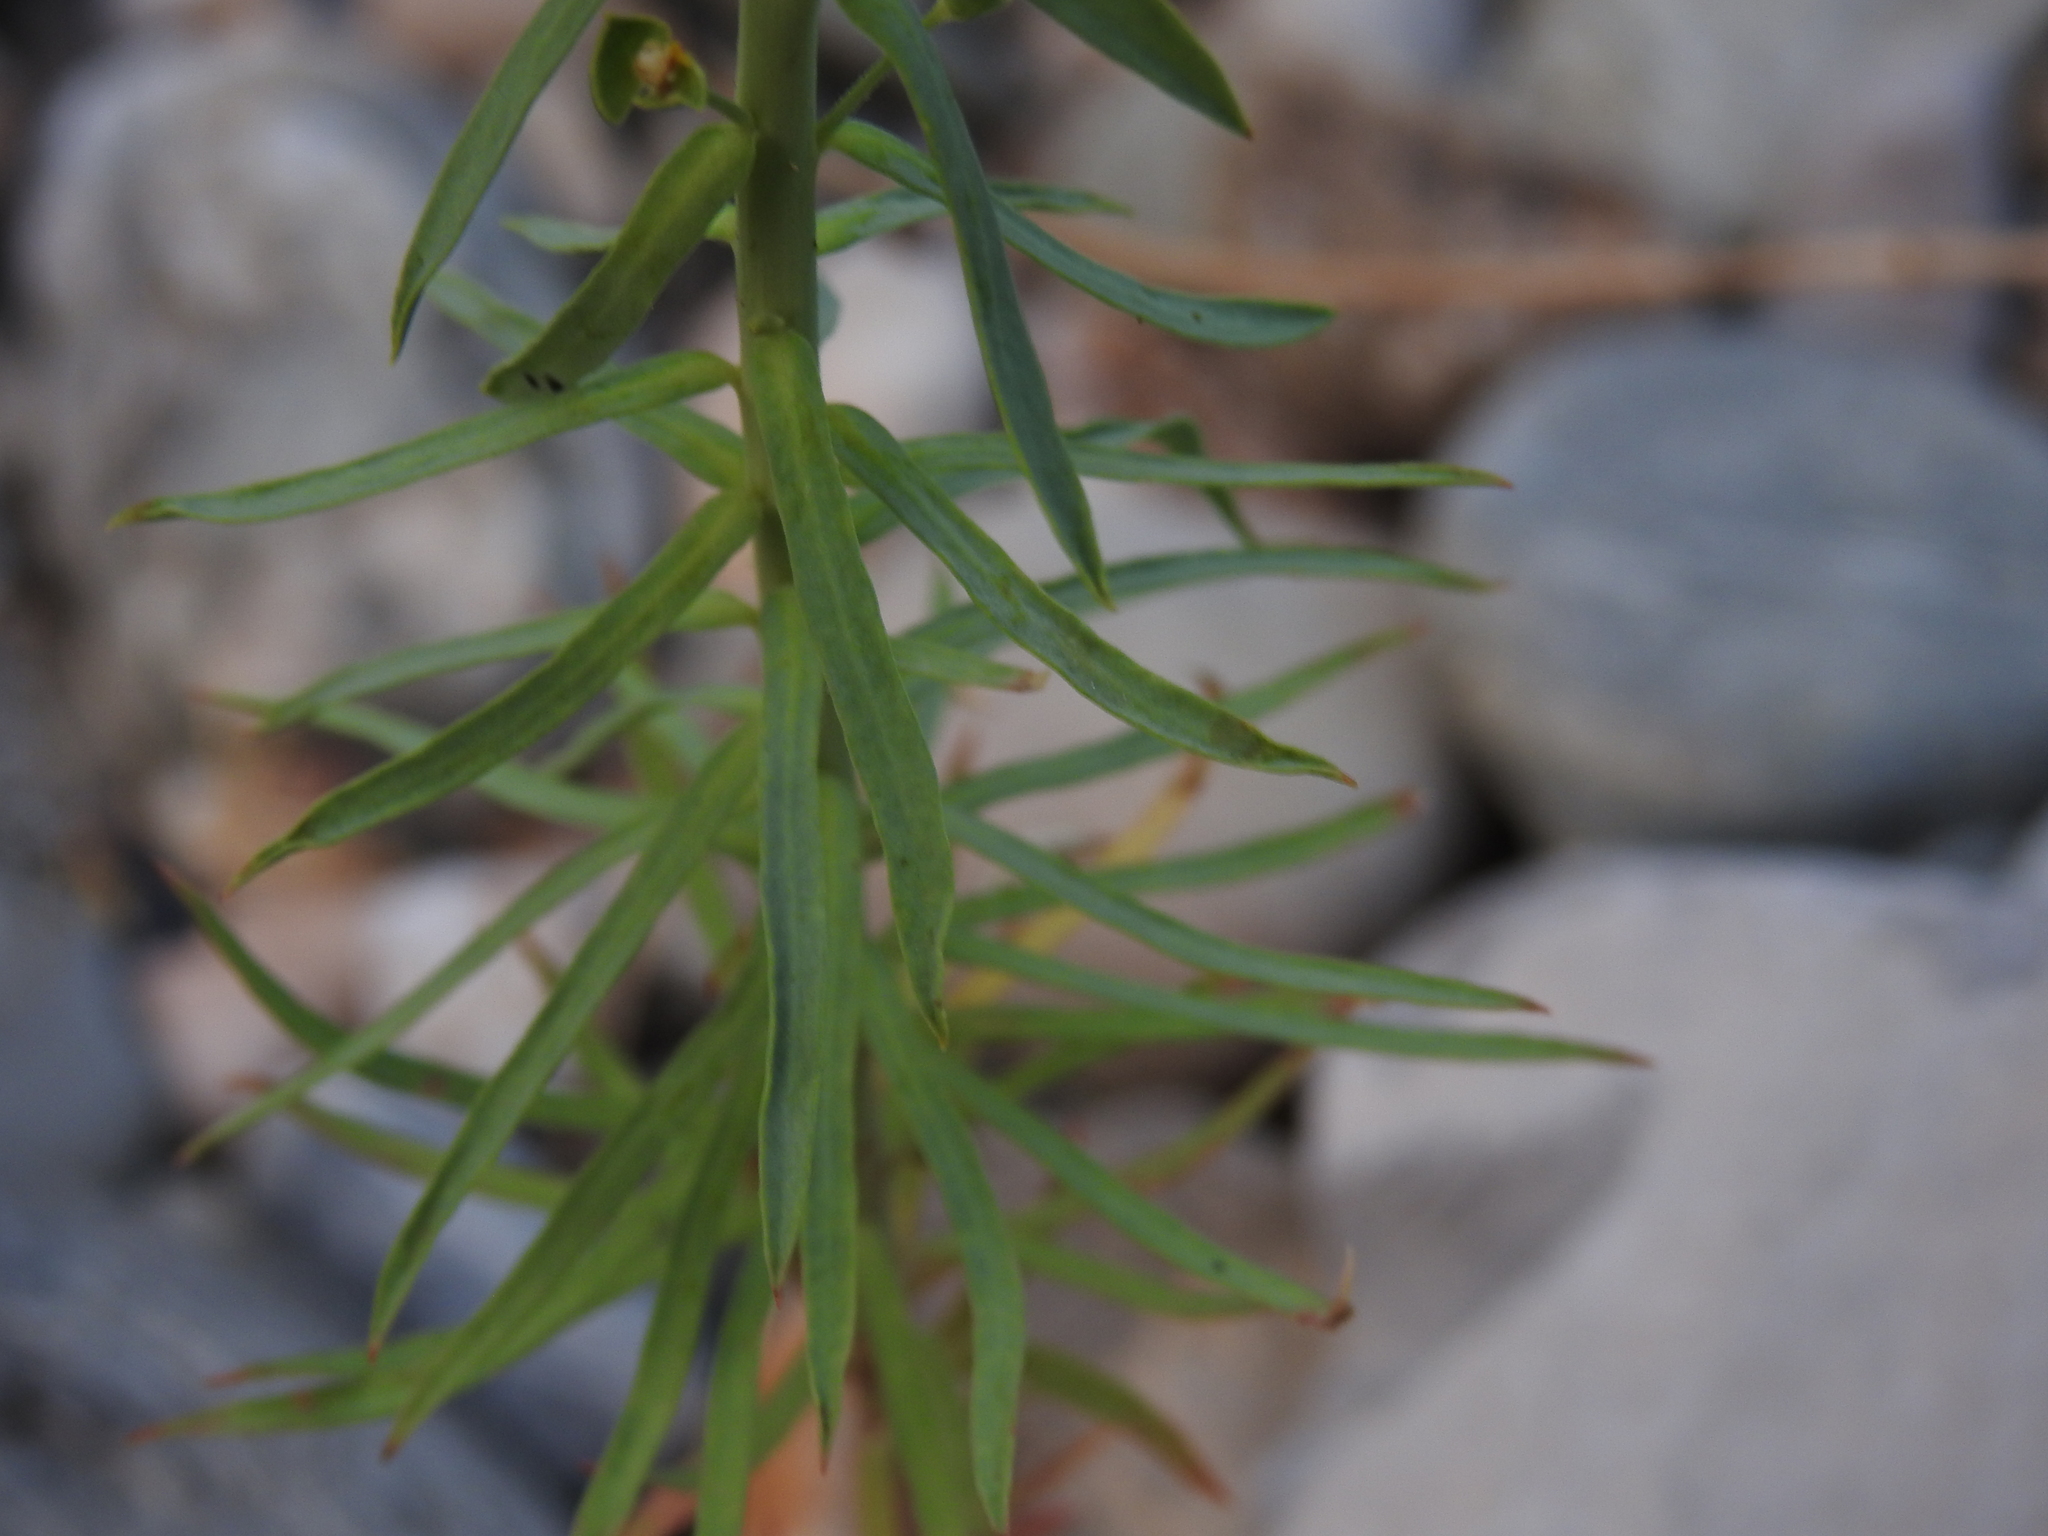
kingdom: Plantae
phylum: Tracheophyta
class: Magnoliopsida
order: Malpighiales
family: Euphorbiaceae
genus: Euphorbia
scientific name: Euphorbia segetalis
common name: Corn spurge
